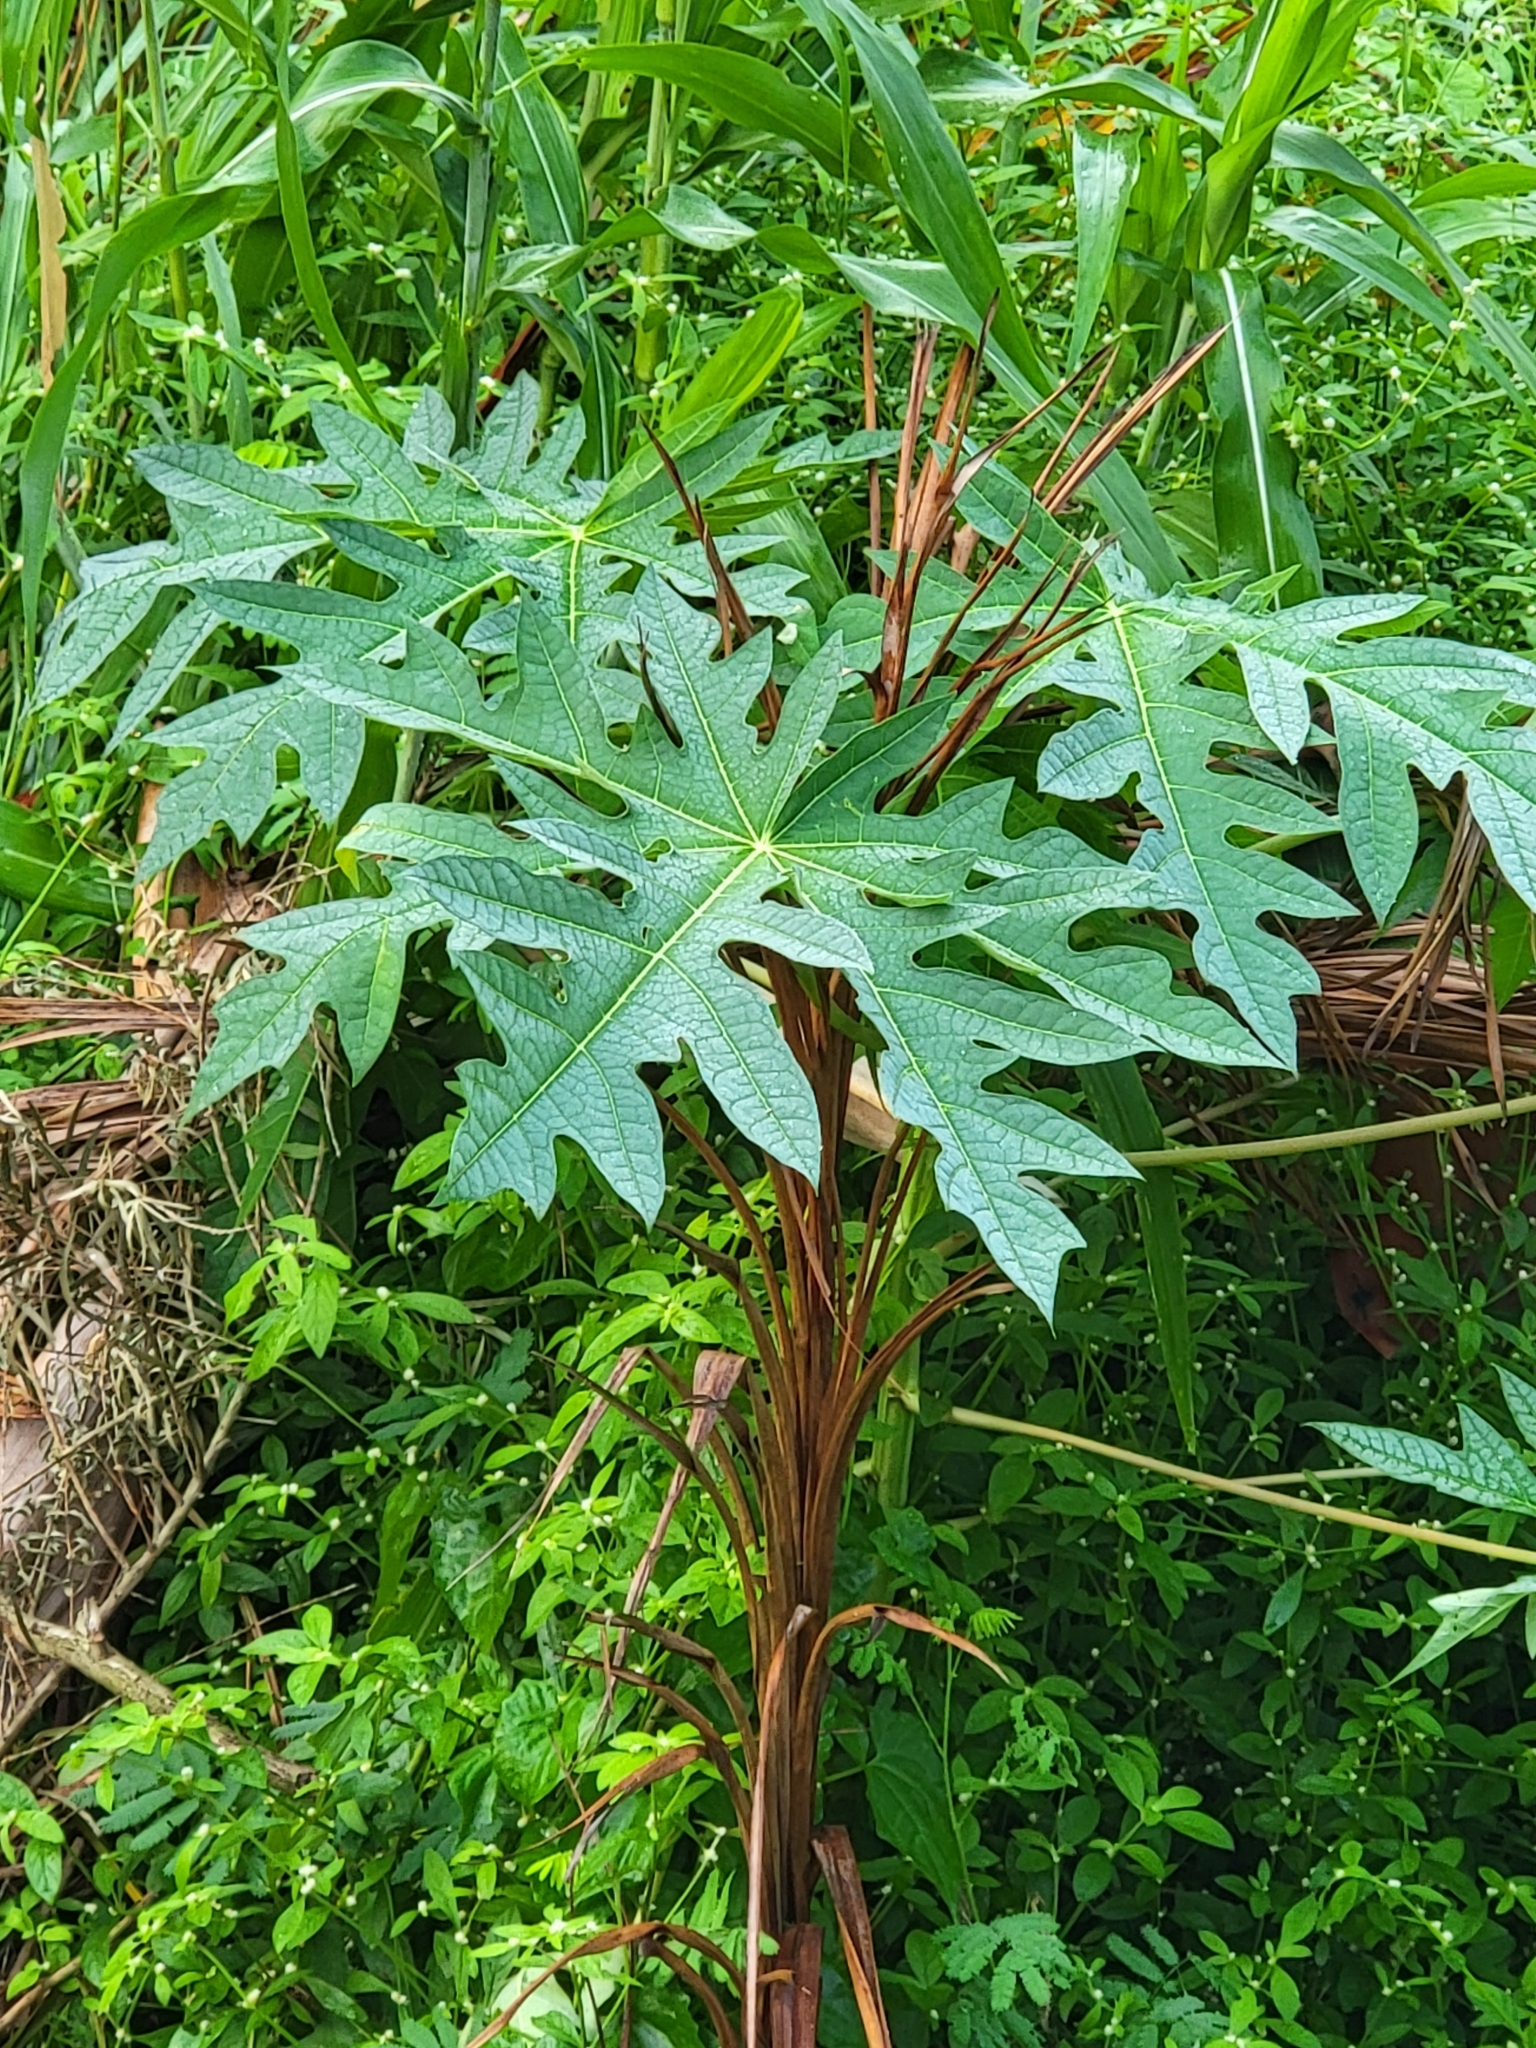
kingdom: Plantae
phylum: Tracheophyta
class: Magnoliopsida
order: Brassicales
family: Caricaceae
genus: Carica
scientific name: Carica papaya
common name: Papaya
